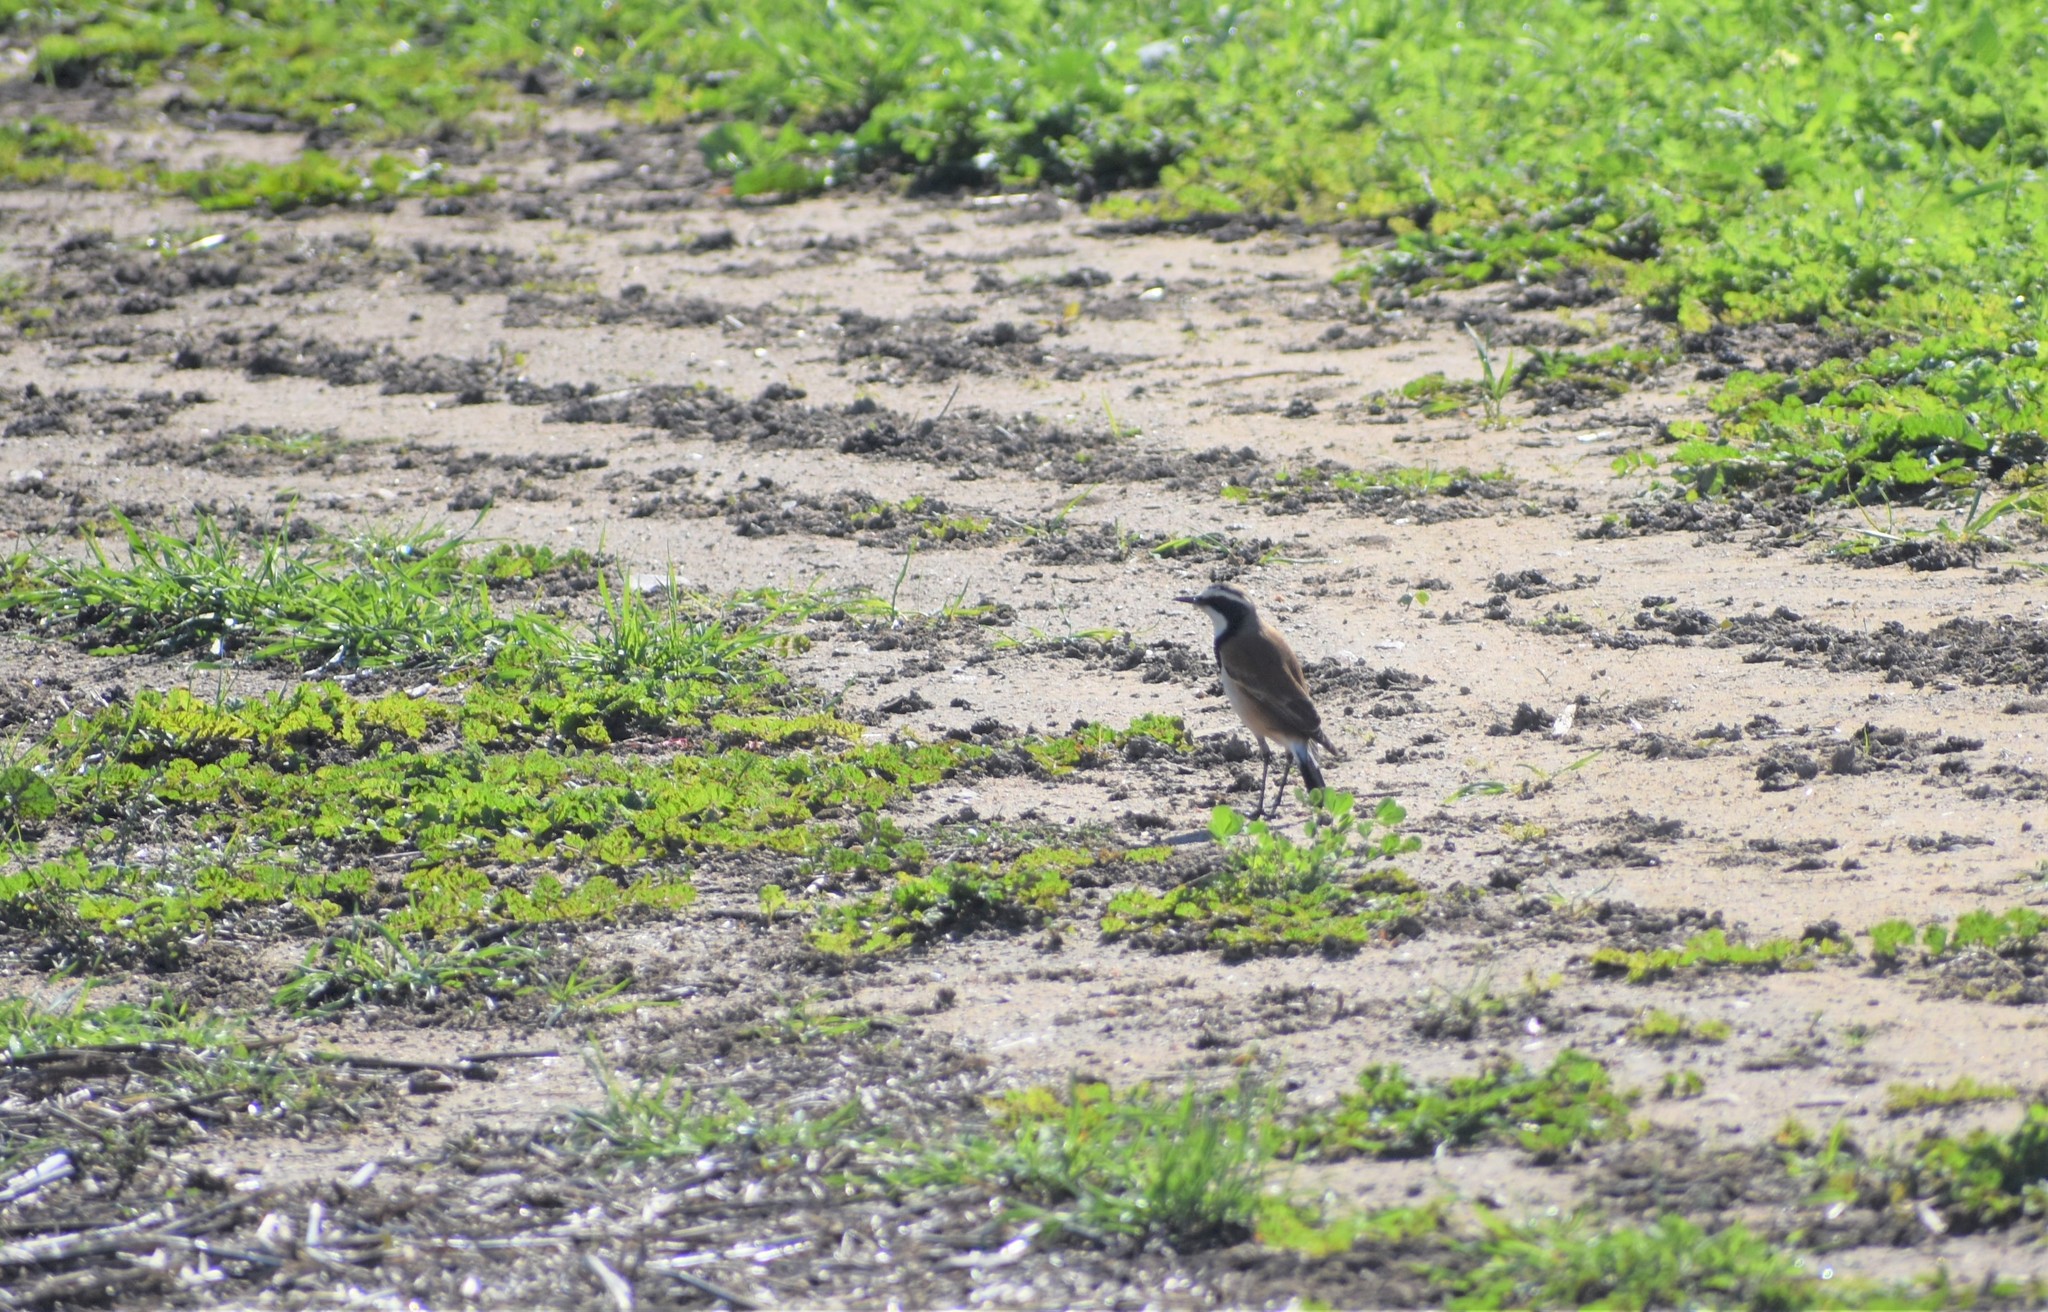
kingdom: Animalia
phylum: Chordata
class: Aves
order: Passeriformes
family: Muscicapidae
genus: Oenanthe
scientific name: Oenanthe pileata
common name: Capped wheatear
